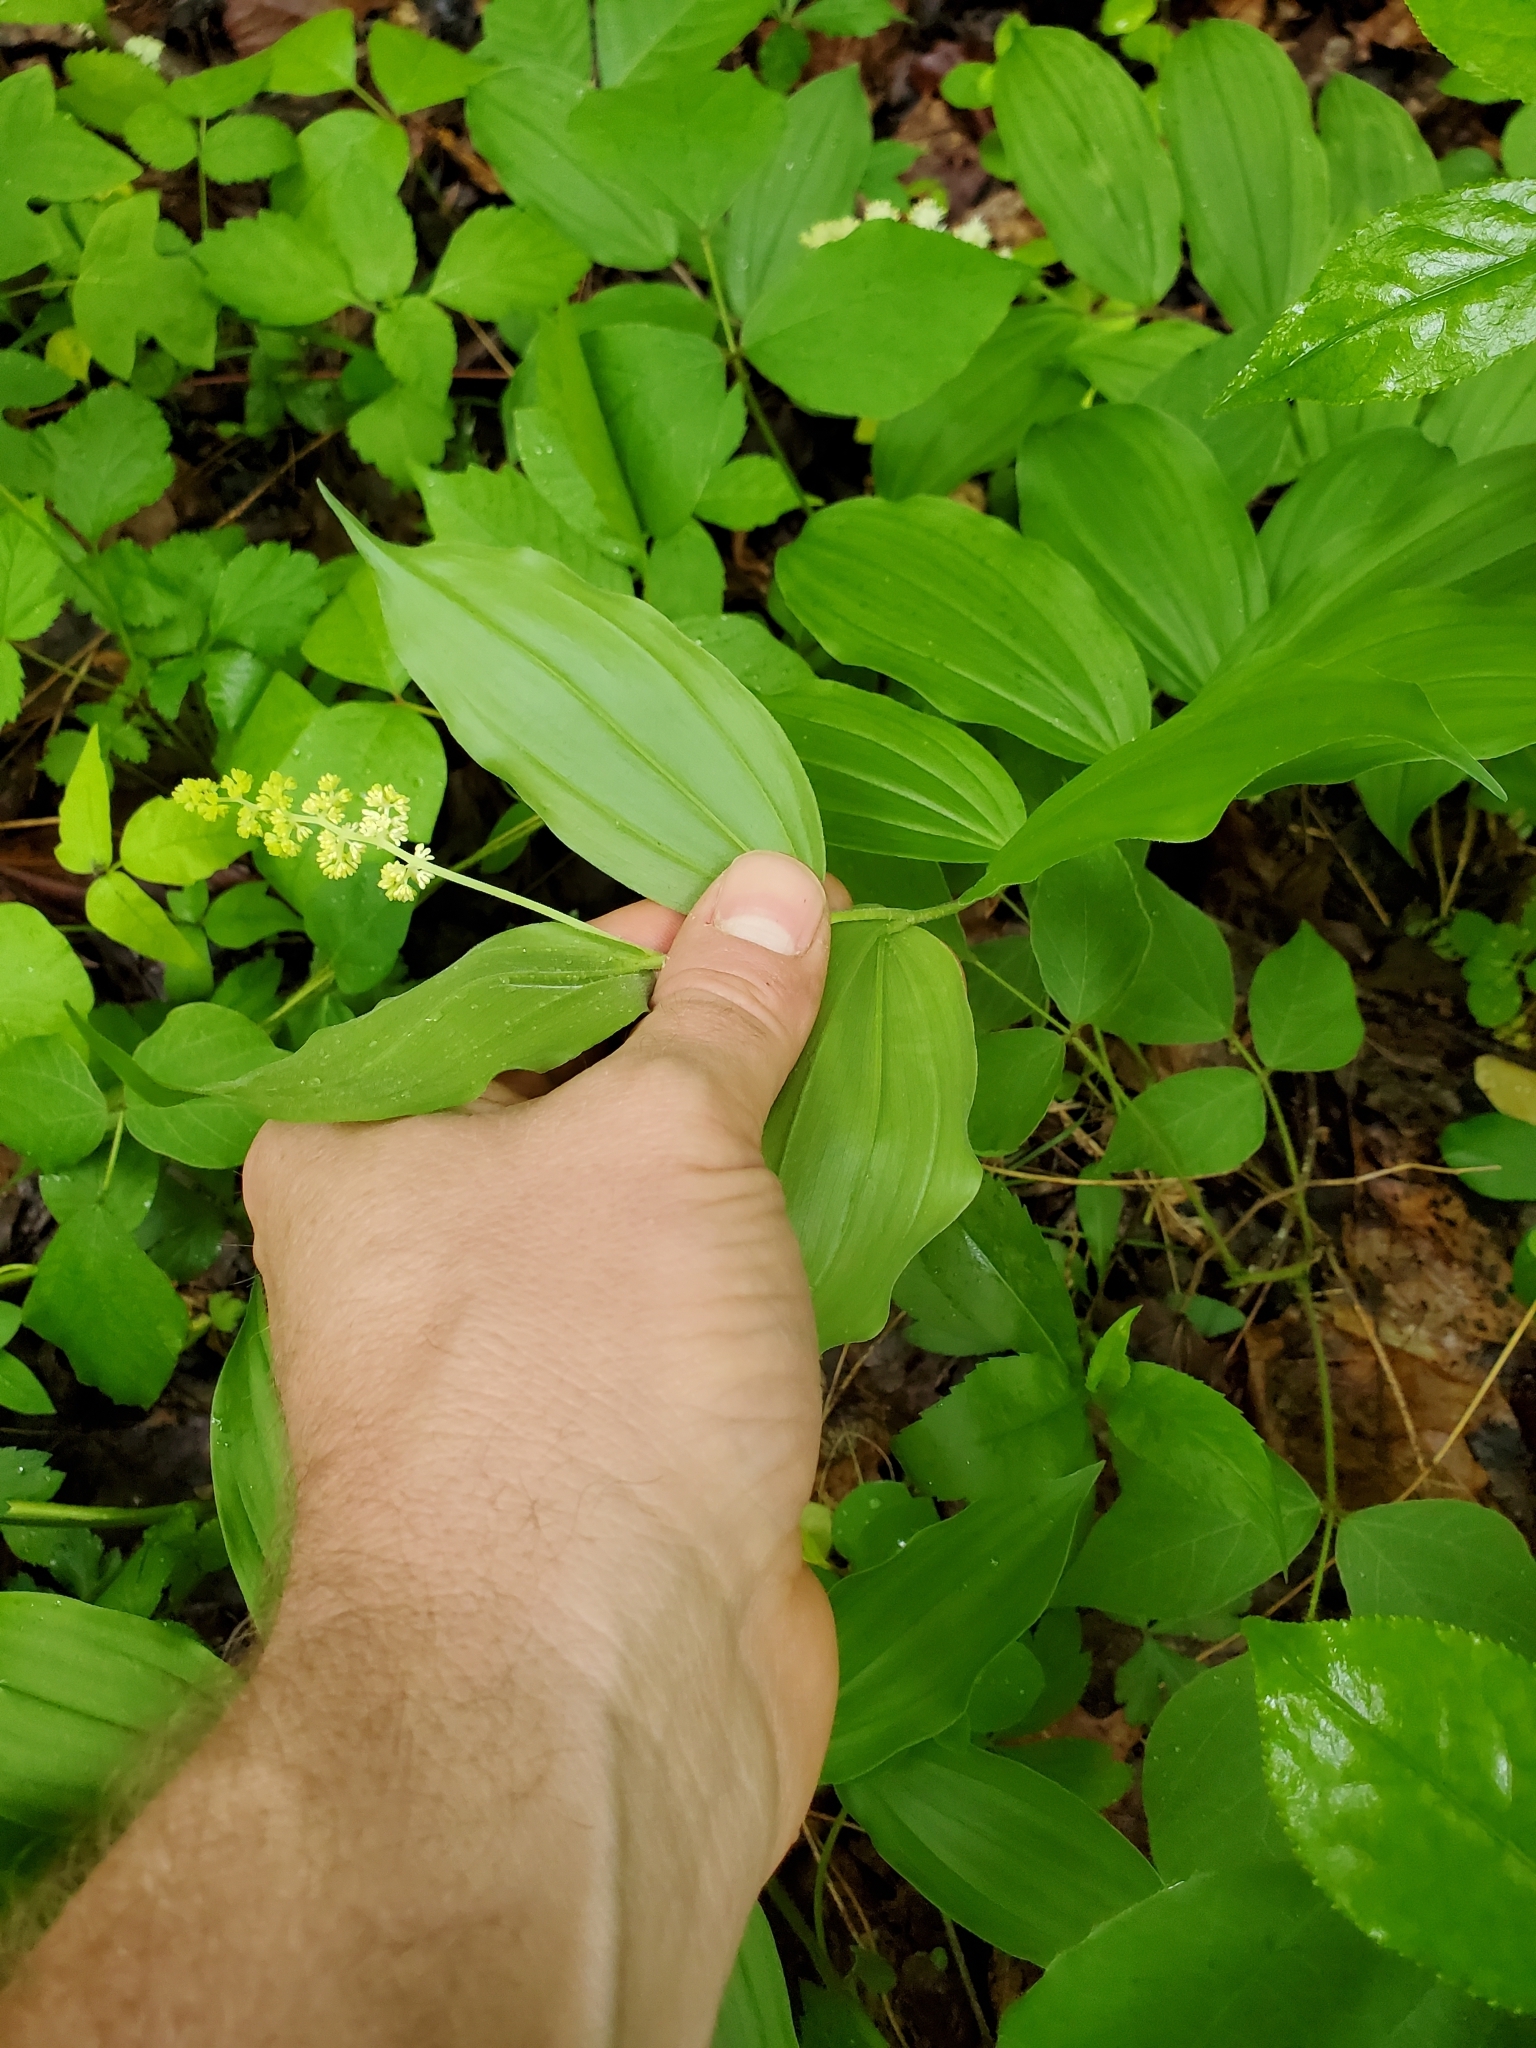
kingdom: Plantae
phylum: Tracheophyta
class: Liliopsida
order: Asparagales
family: Asparagaceae
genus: Maianthemum
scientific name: Maianthemum racemosum
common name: False spikenard
